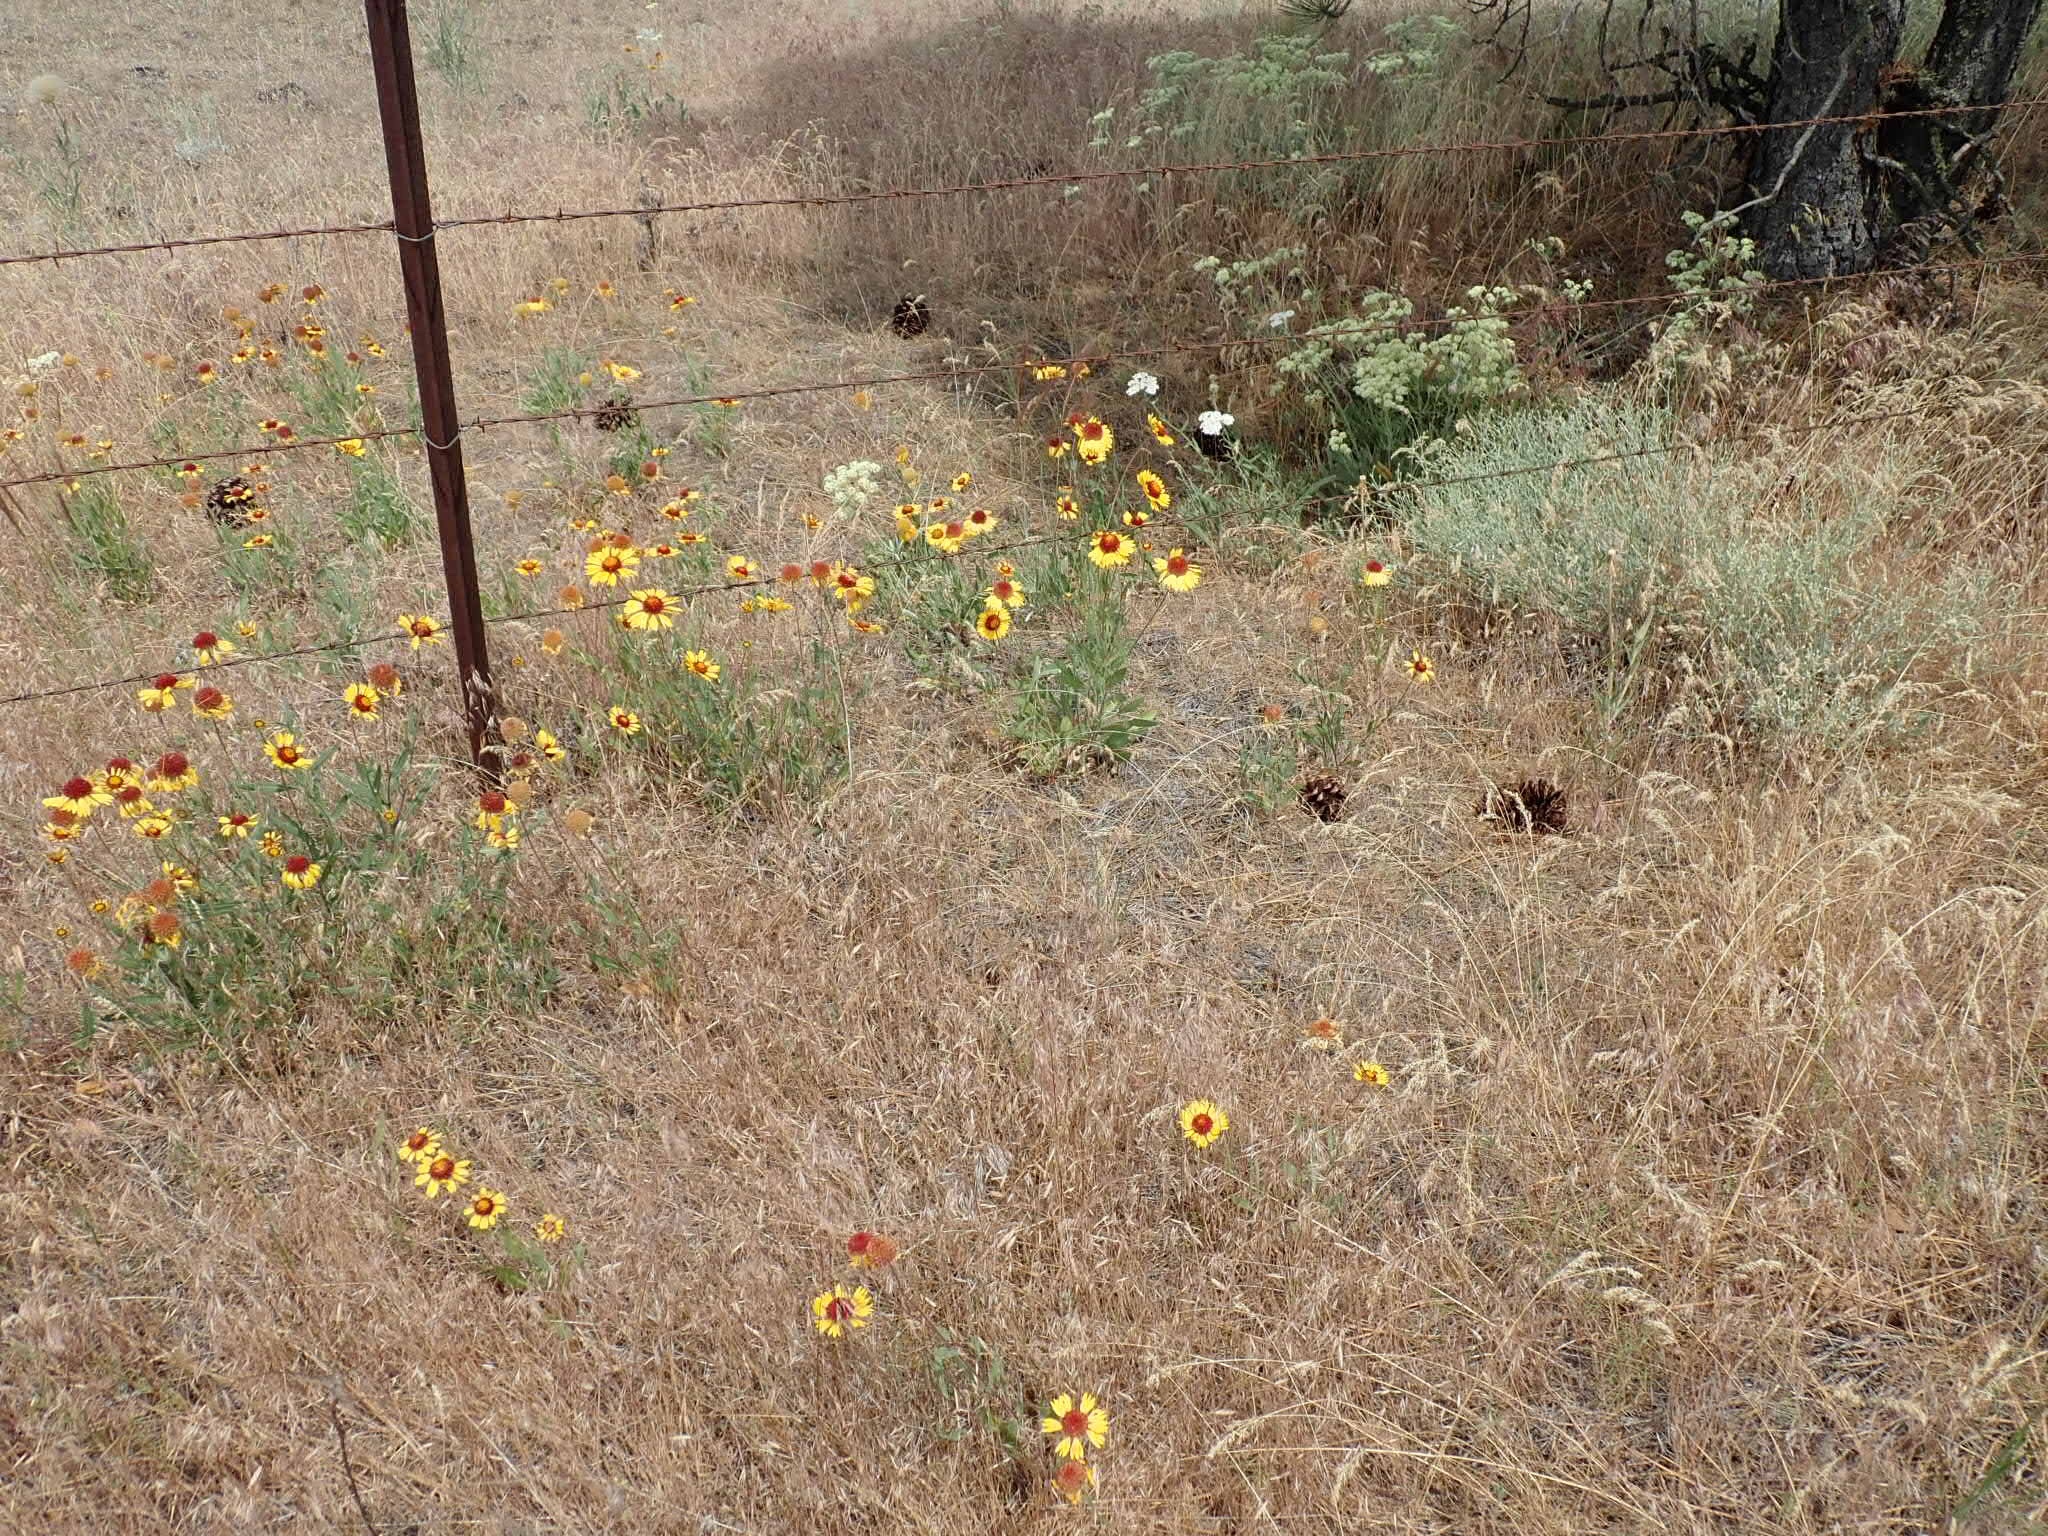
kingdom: Plantae
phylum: Tracheophyta
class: Magnoliopsida
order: Asterales
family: Asteraceae
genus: Gaillardia
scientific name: Gaillardia aristata
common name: Blanket-flower
